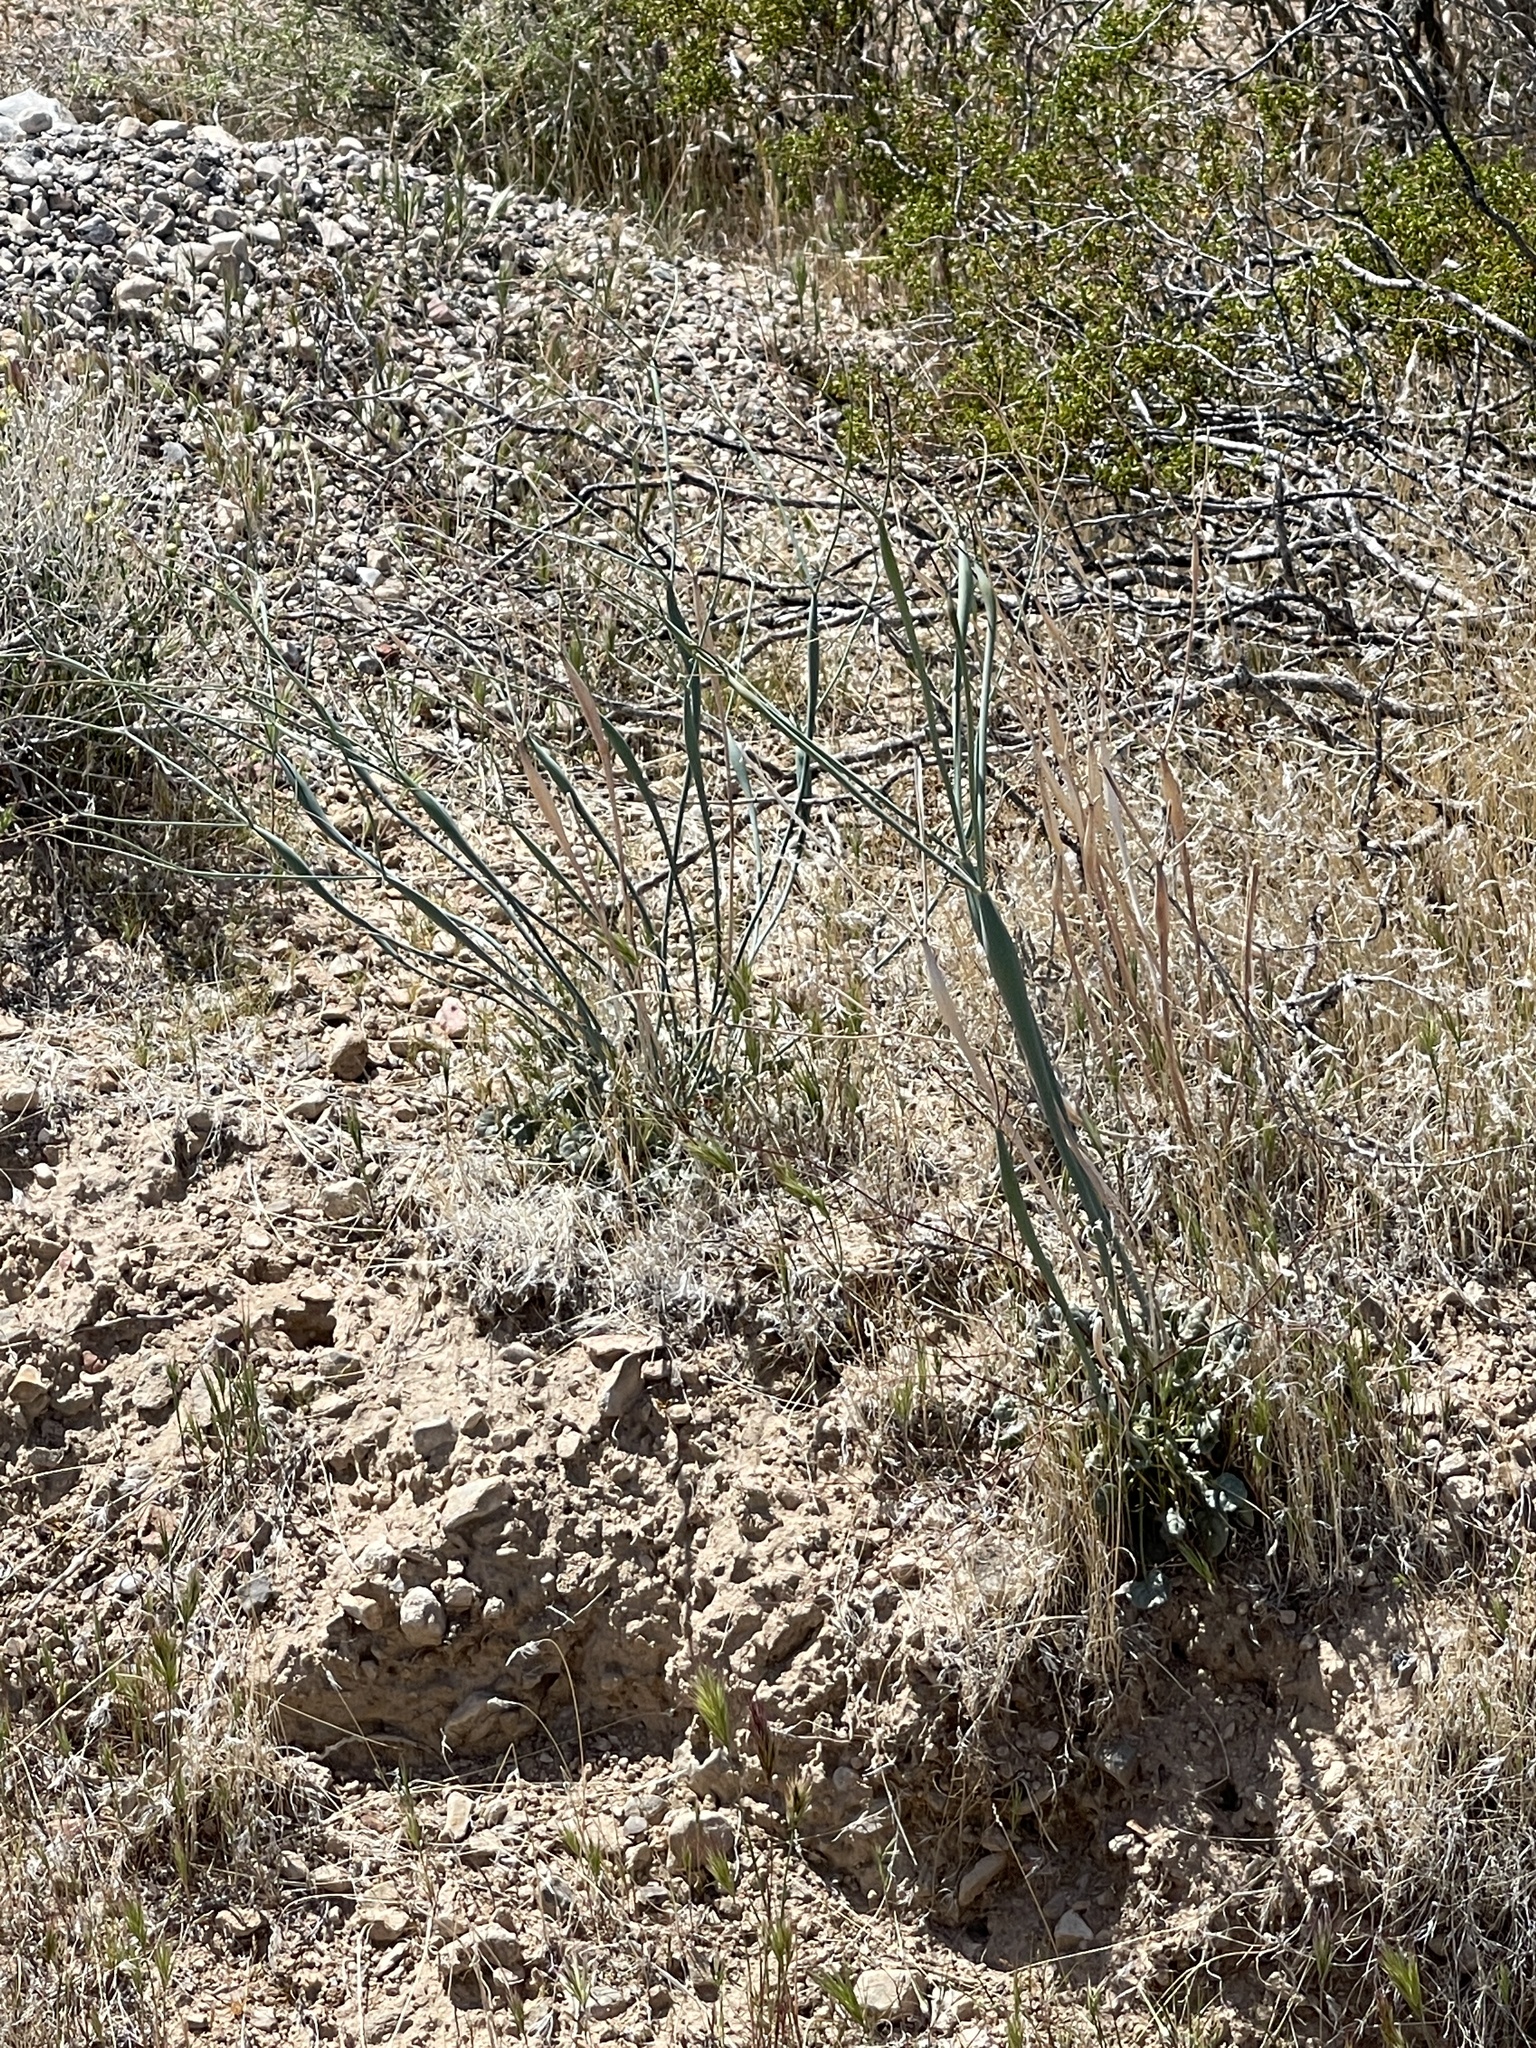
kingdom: Plantae
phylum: Tracheophyta
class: Magnoliopsida
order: Caryophyllales
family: Polygonaceae
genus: Eriogonum
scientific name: Eriogonum inflatum
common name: Desert trumpet
